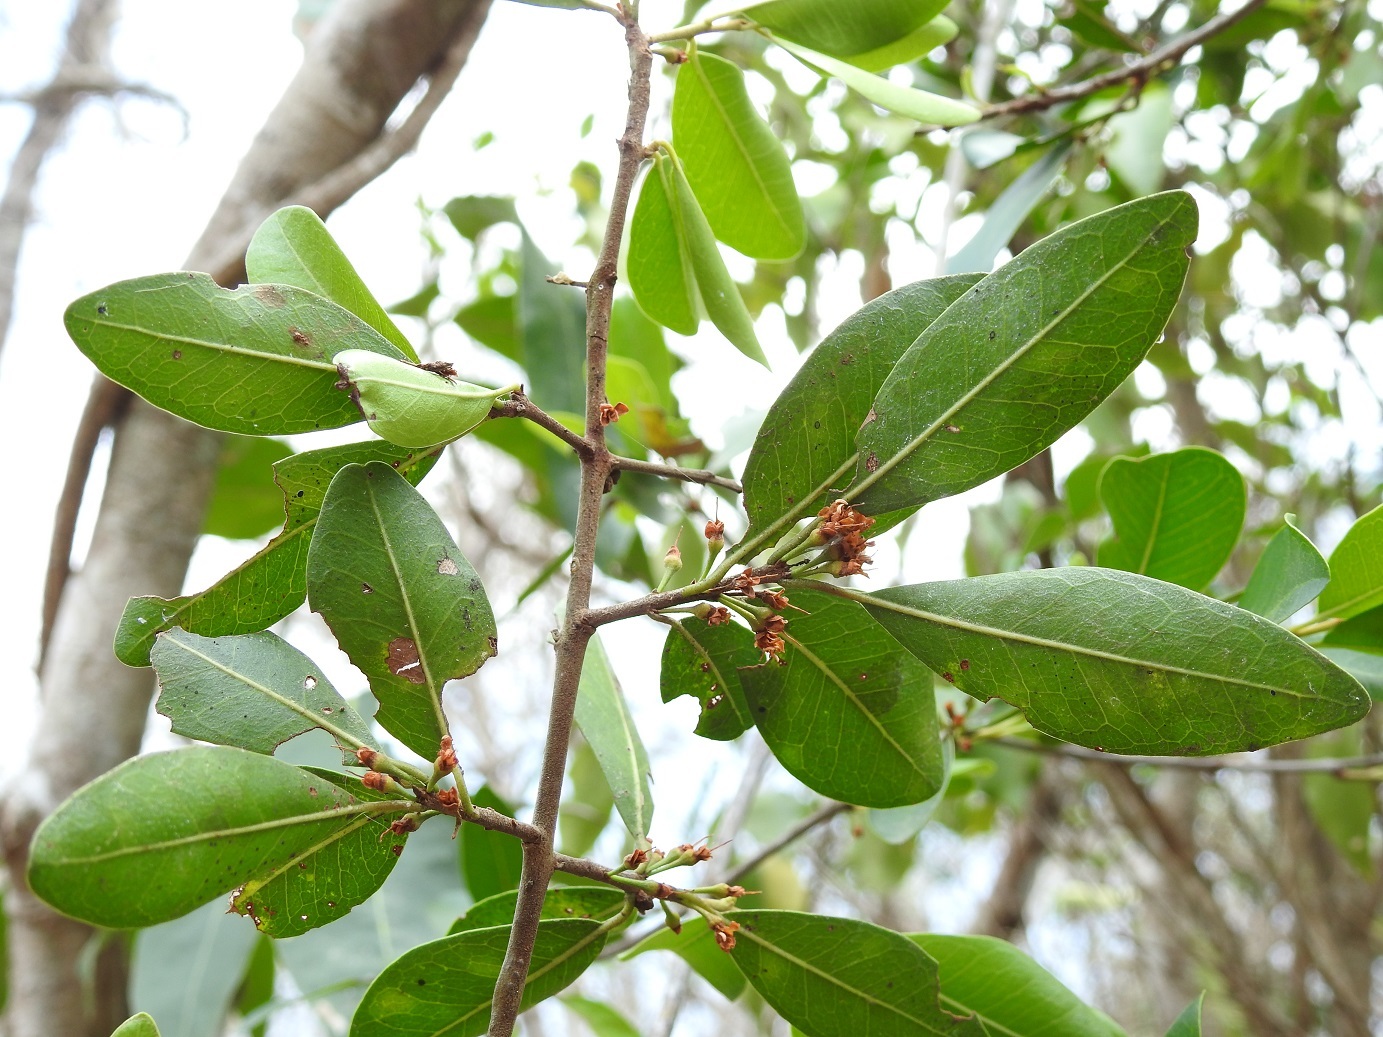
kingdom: Plantae
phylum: Tracheophyta
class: Magnoliopsida
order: Malpighiales
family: Erythroxylaceae
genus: Erythroxylum
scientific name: Erythroxylum mexicanum
